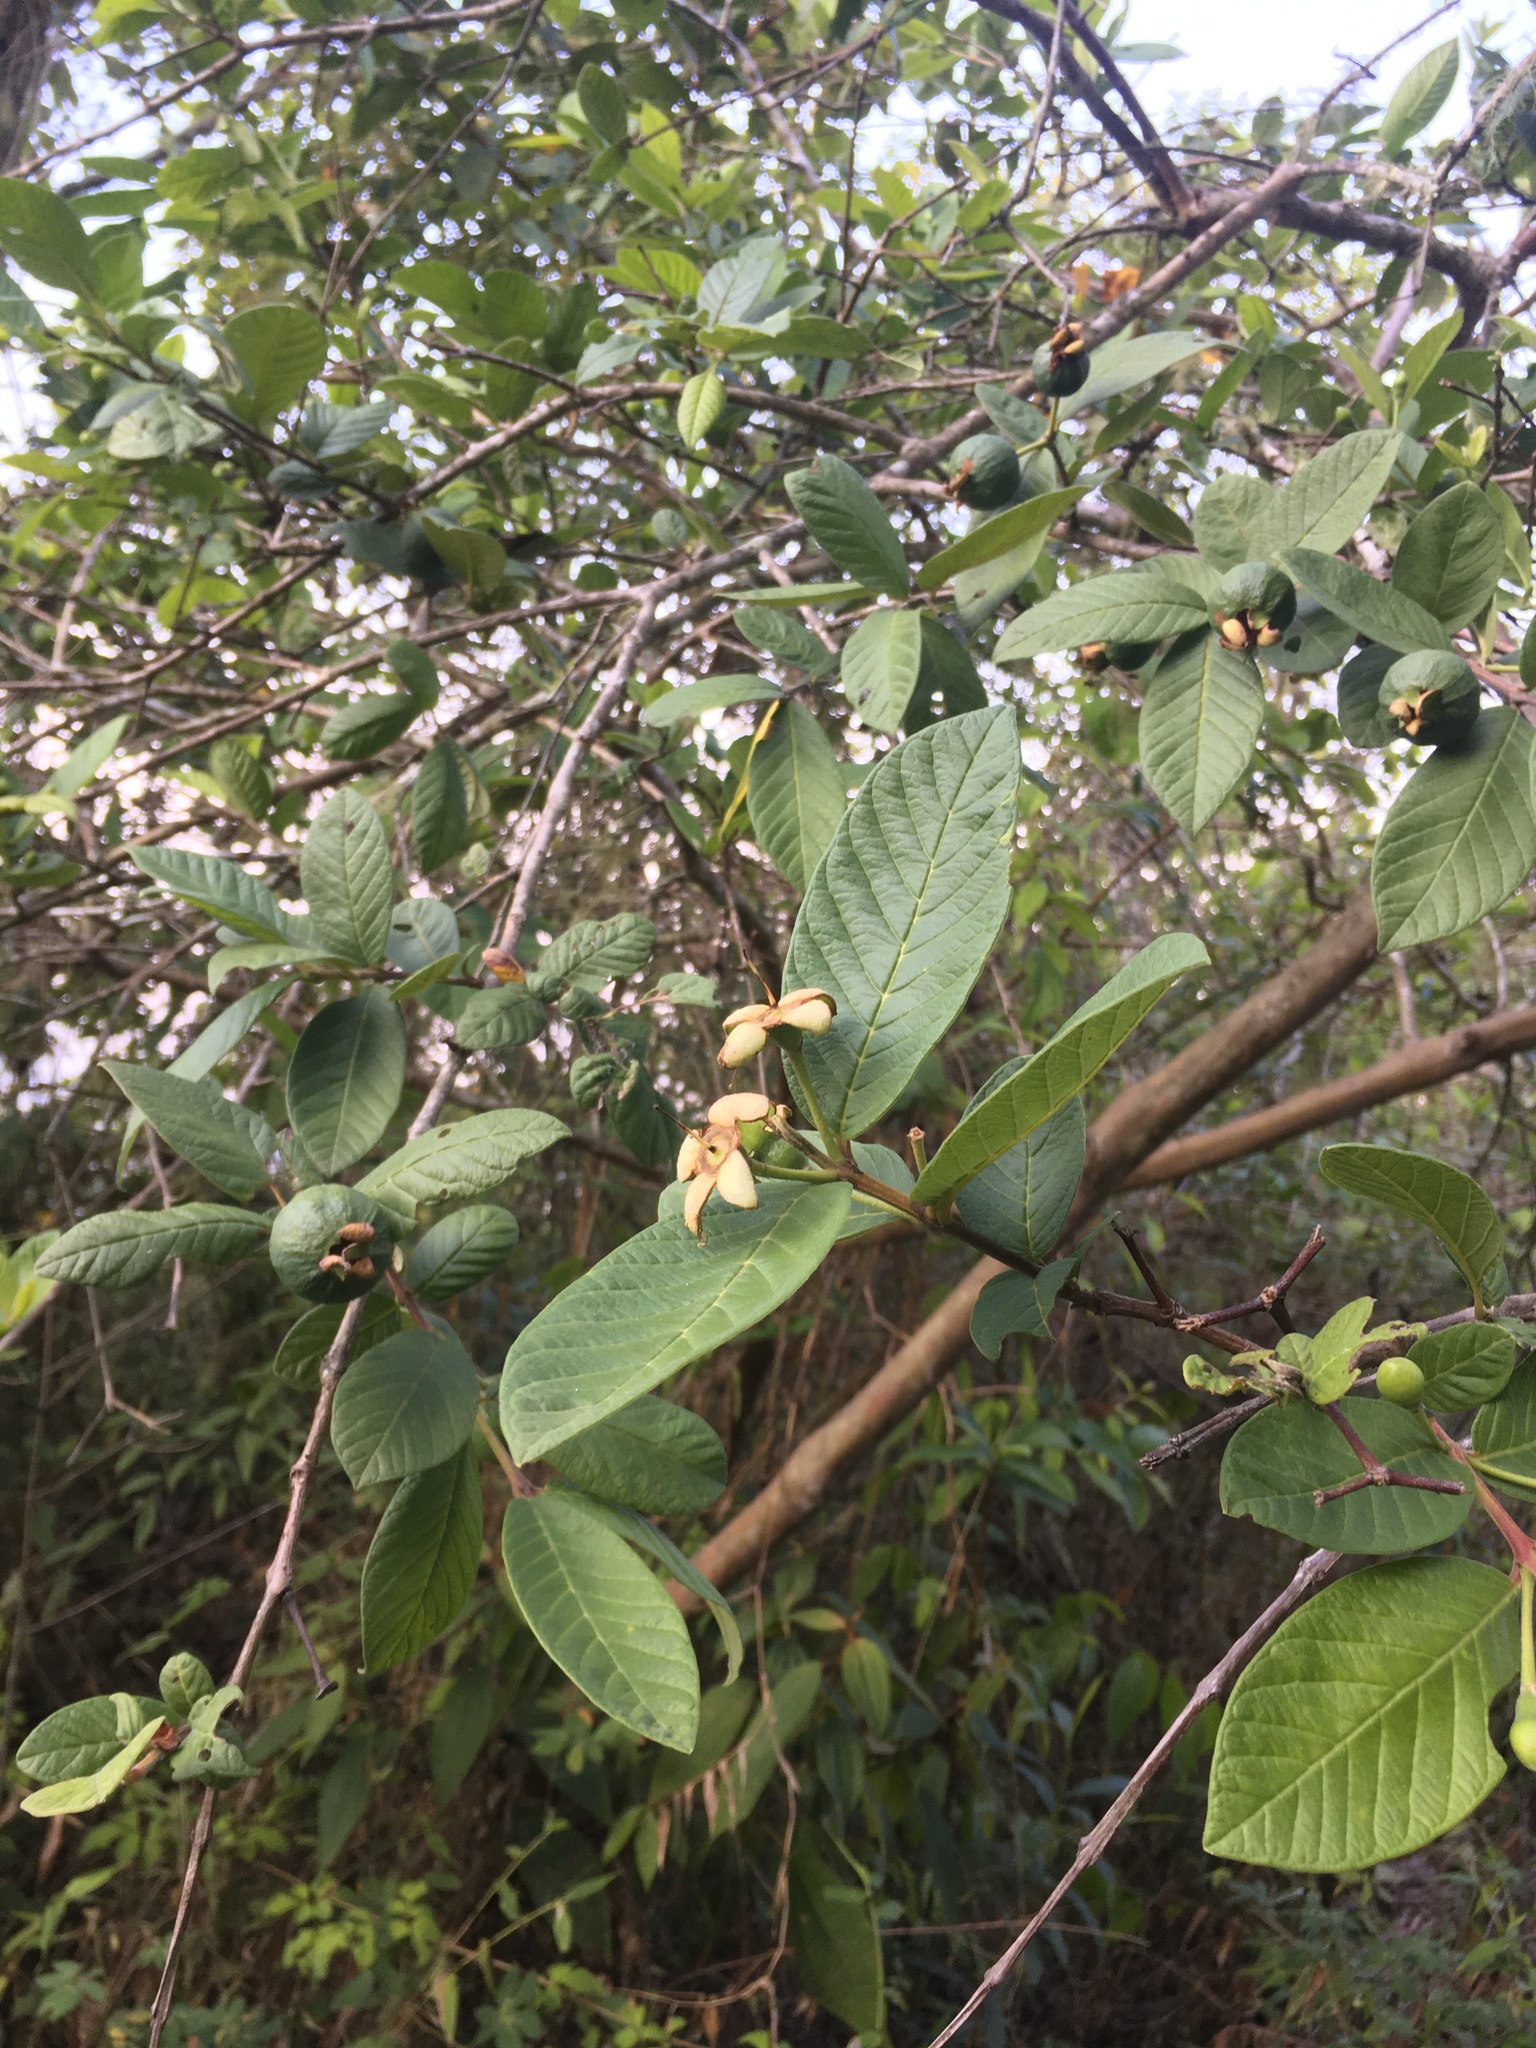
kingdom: Plantae
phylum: Tracheophyta
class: Magnoliopsida
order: Myrtales
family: Myrtaceae
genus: Psidium
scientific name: Psidium guajava
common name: Guava
